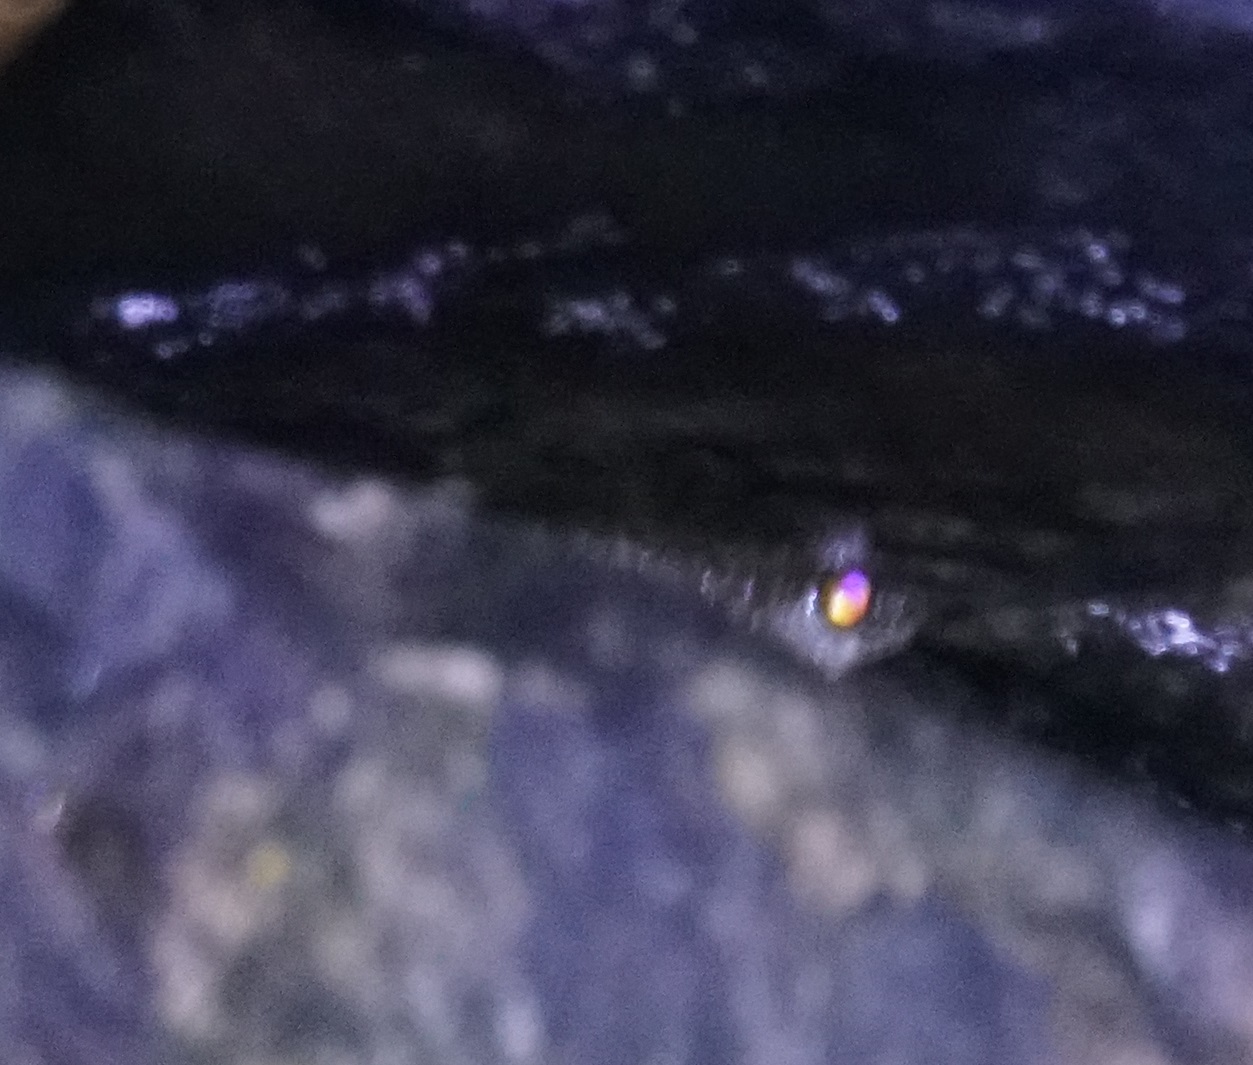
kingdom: Animalia
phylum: Chordata
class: Amphibia
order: Anura
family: Pelodryadidae
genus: Ranoidea
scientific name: Ranoidea nannotis
